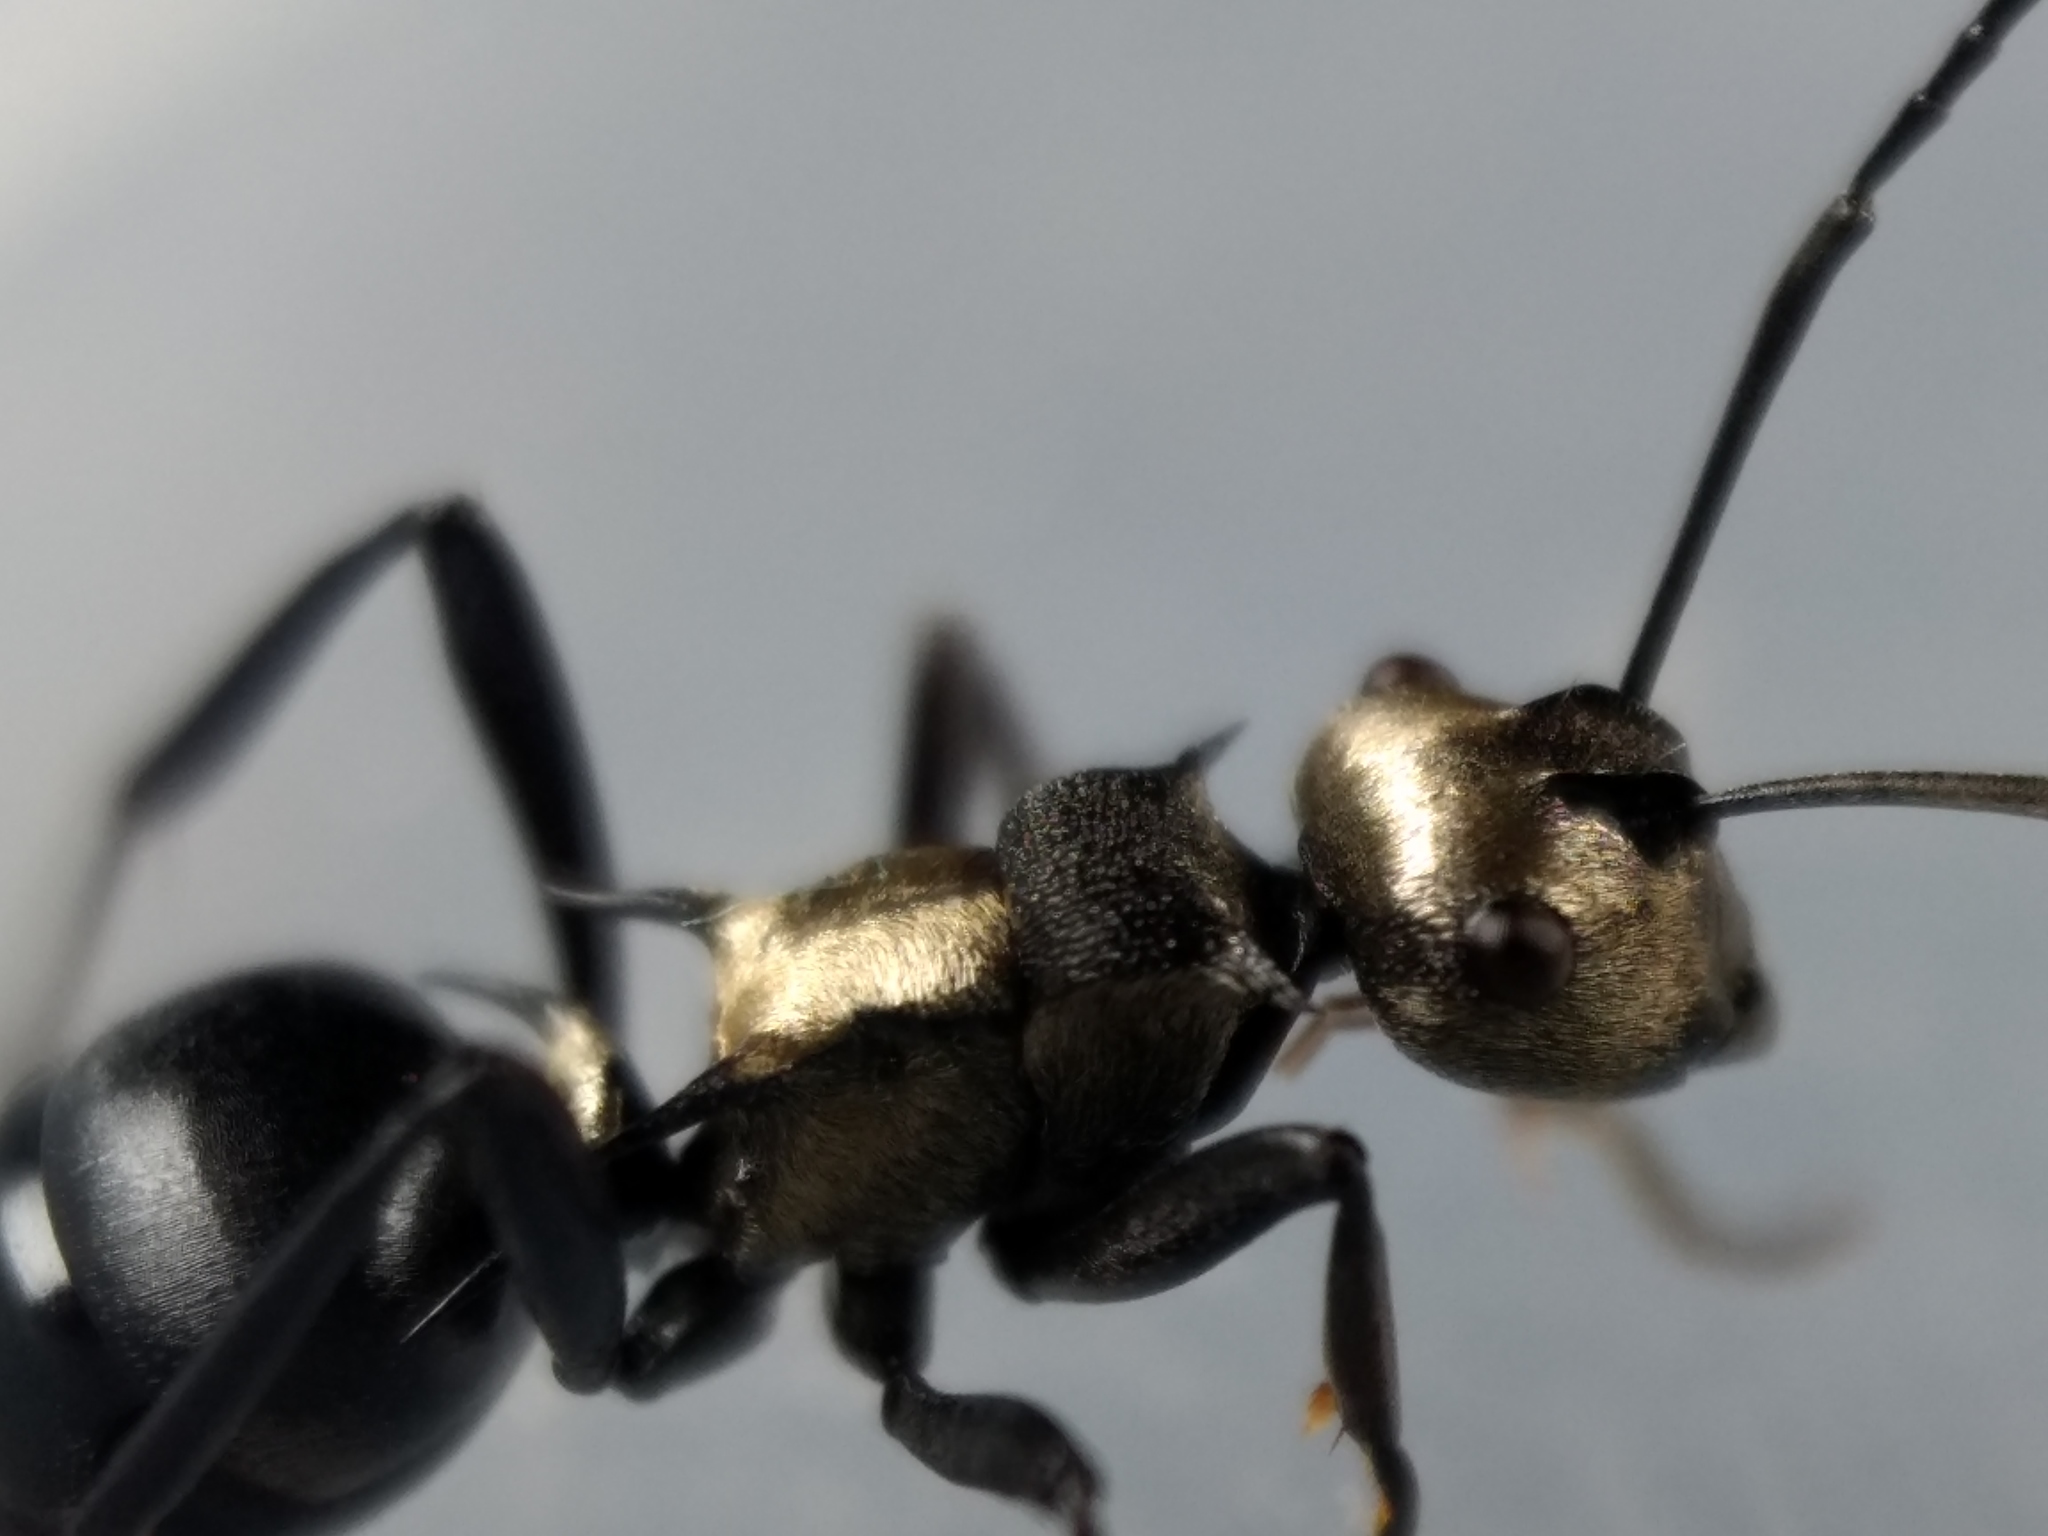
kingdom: Animalia
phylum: Arthropoda
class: Insecta
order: Hymenoptera
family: Formicidae
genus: Polyrhachis
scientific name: Polyrhachis argentosa
